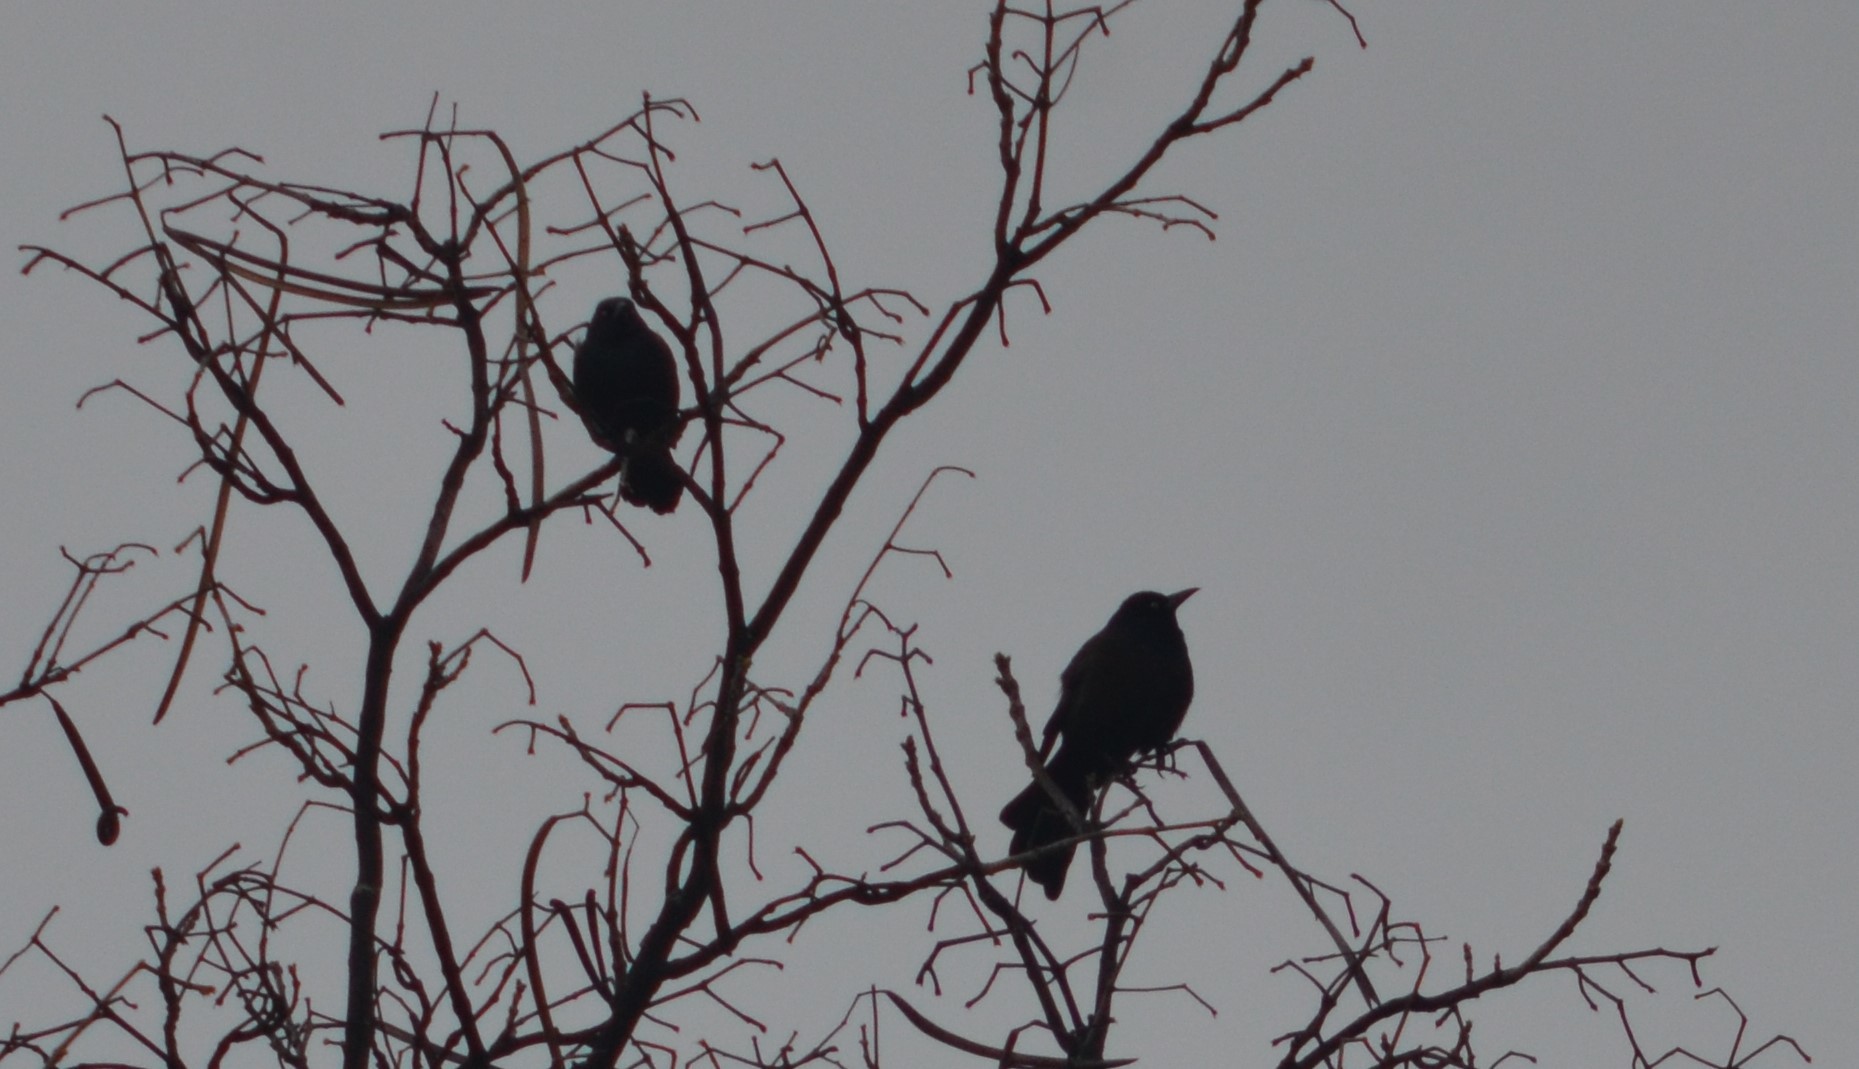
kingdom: Animalia
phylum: Chordata
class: Aves
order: Passeriformes
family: Icteridae
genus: Quiscalus
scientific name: Quiscalus quiscula
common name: Common grackle
